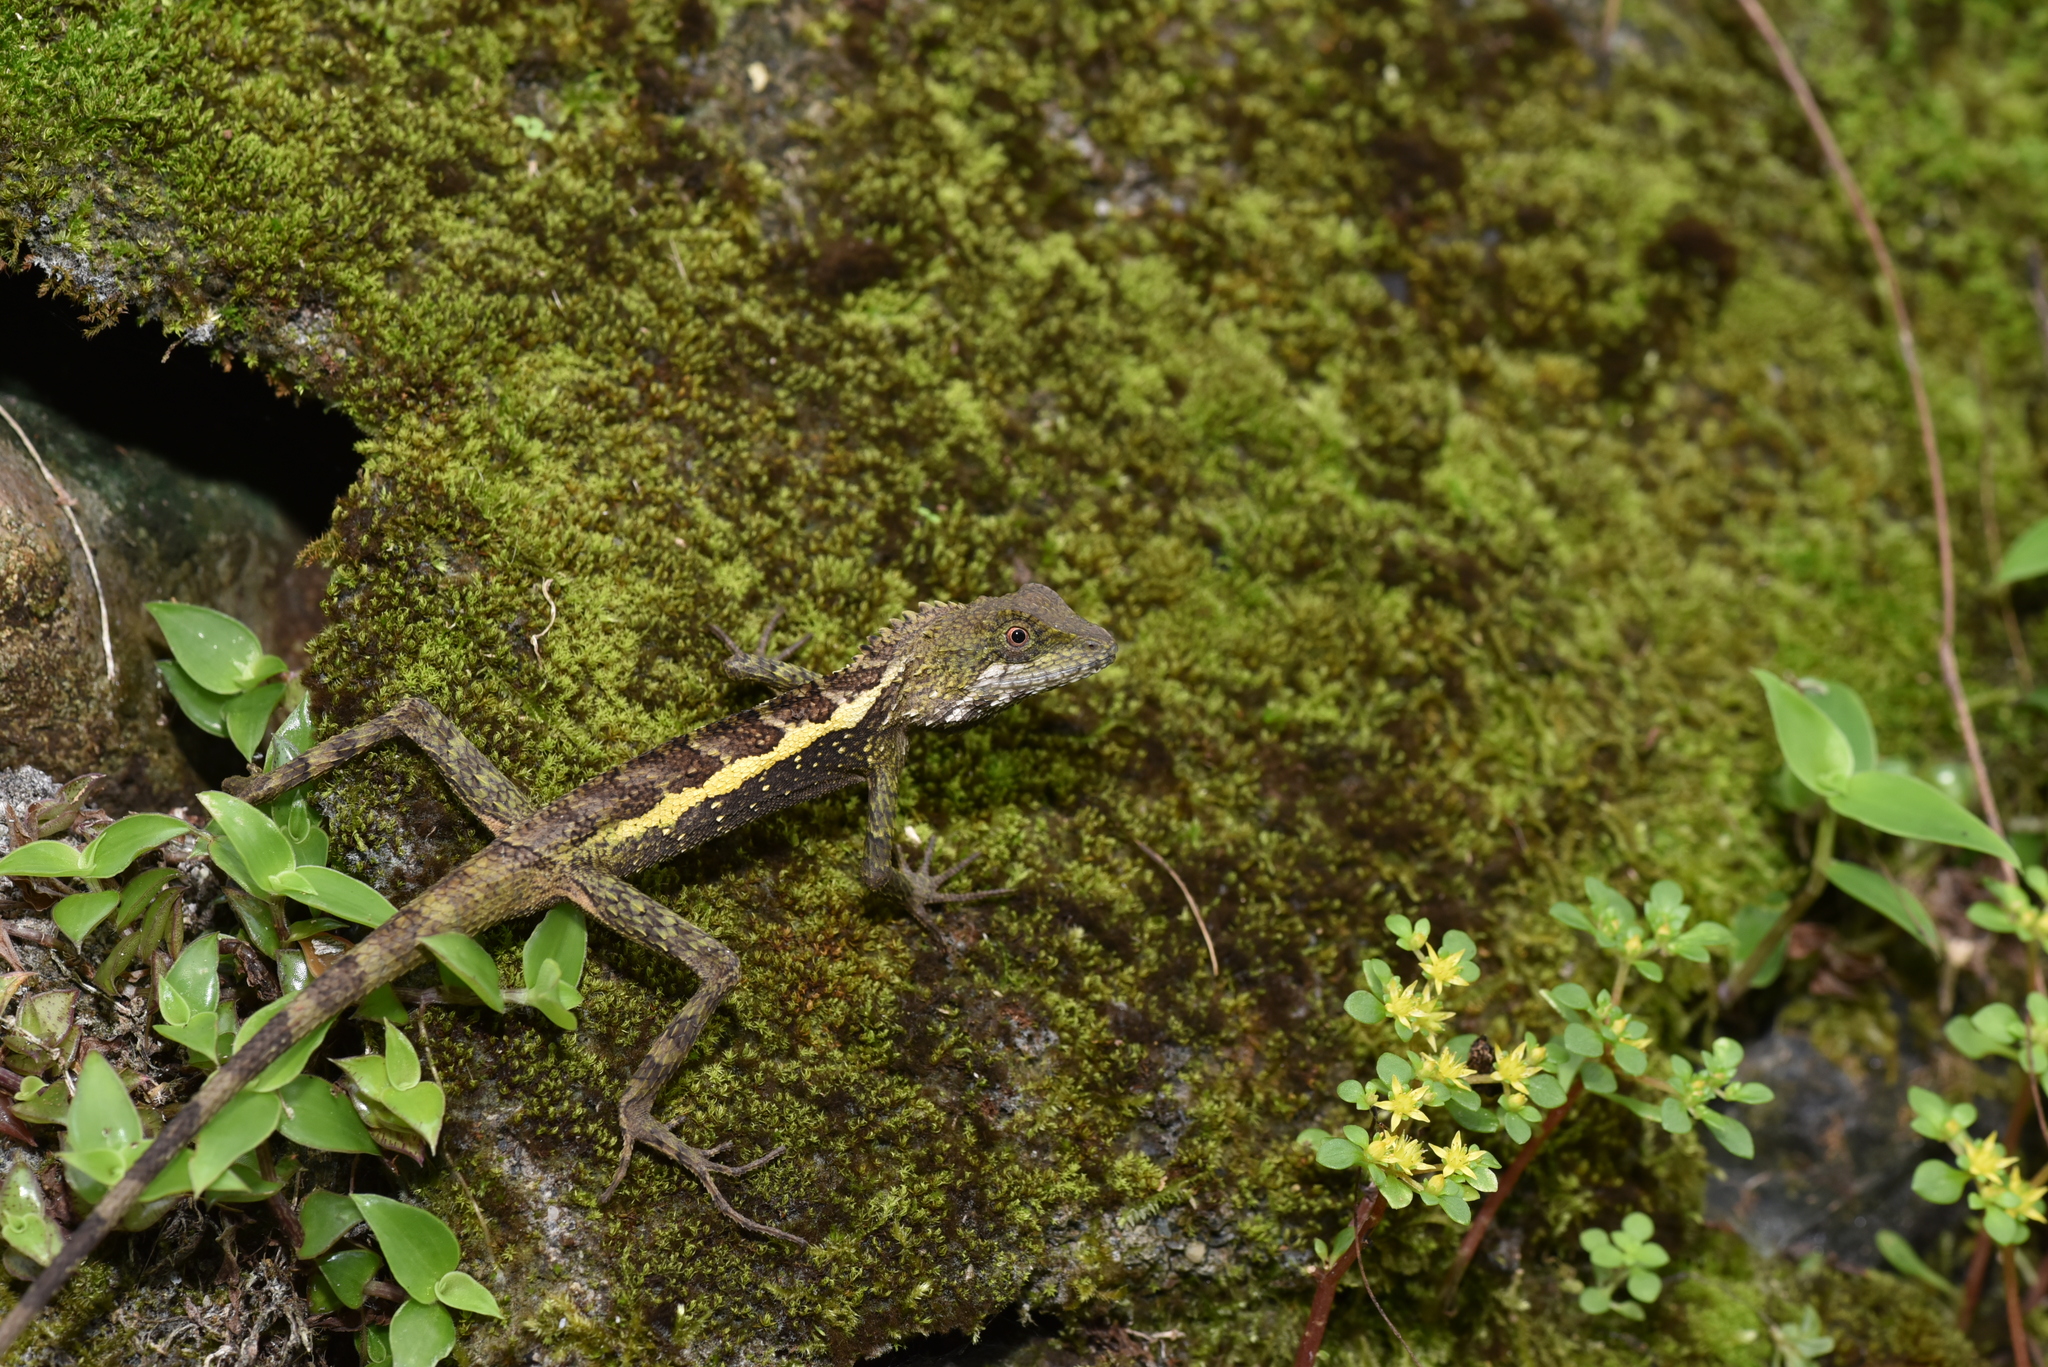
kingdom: Animalia
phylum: Chordata
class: Squamata
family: Agamidae
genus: Diploderma
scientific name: Diploderma swinhonis
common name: Taiwan japalure
